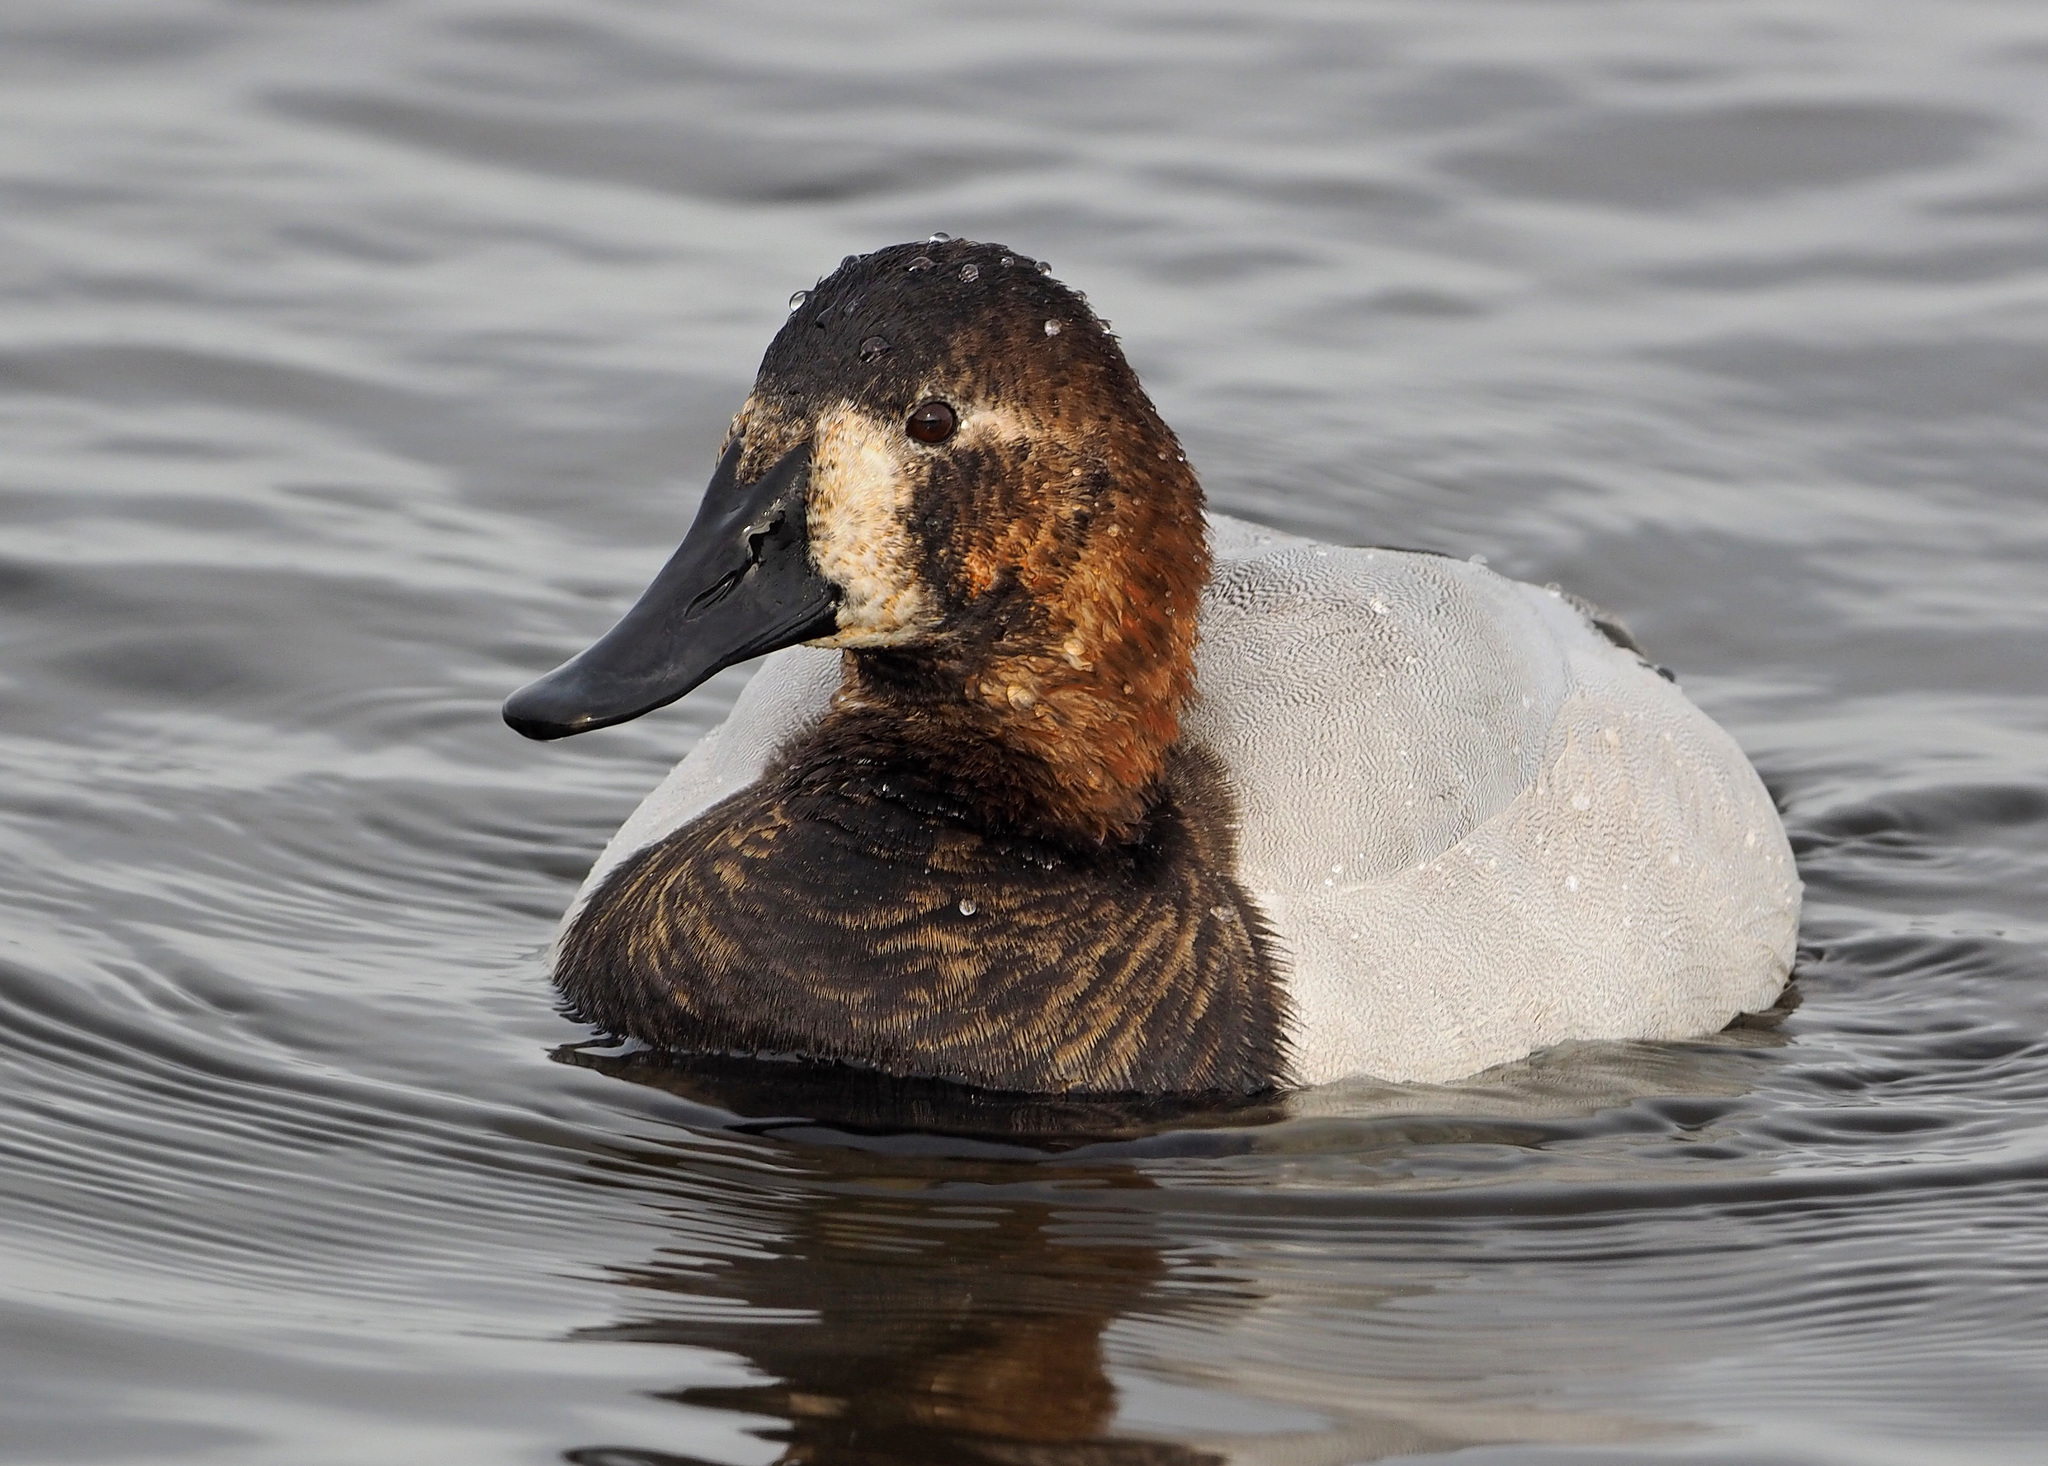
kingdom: Animalia
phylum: Chordata
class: Aves
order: Anseriformes
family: Anatidae
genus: Aythya
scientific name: Aythya valisineria
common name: Canvasback
